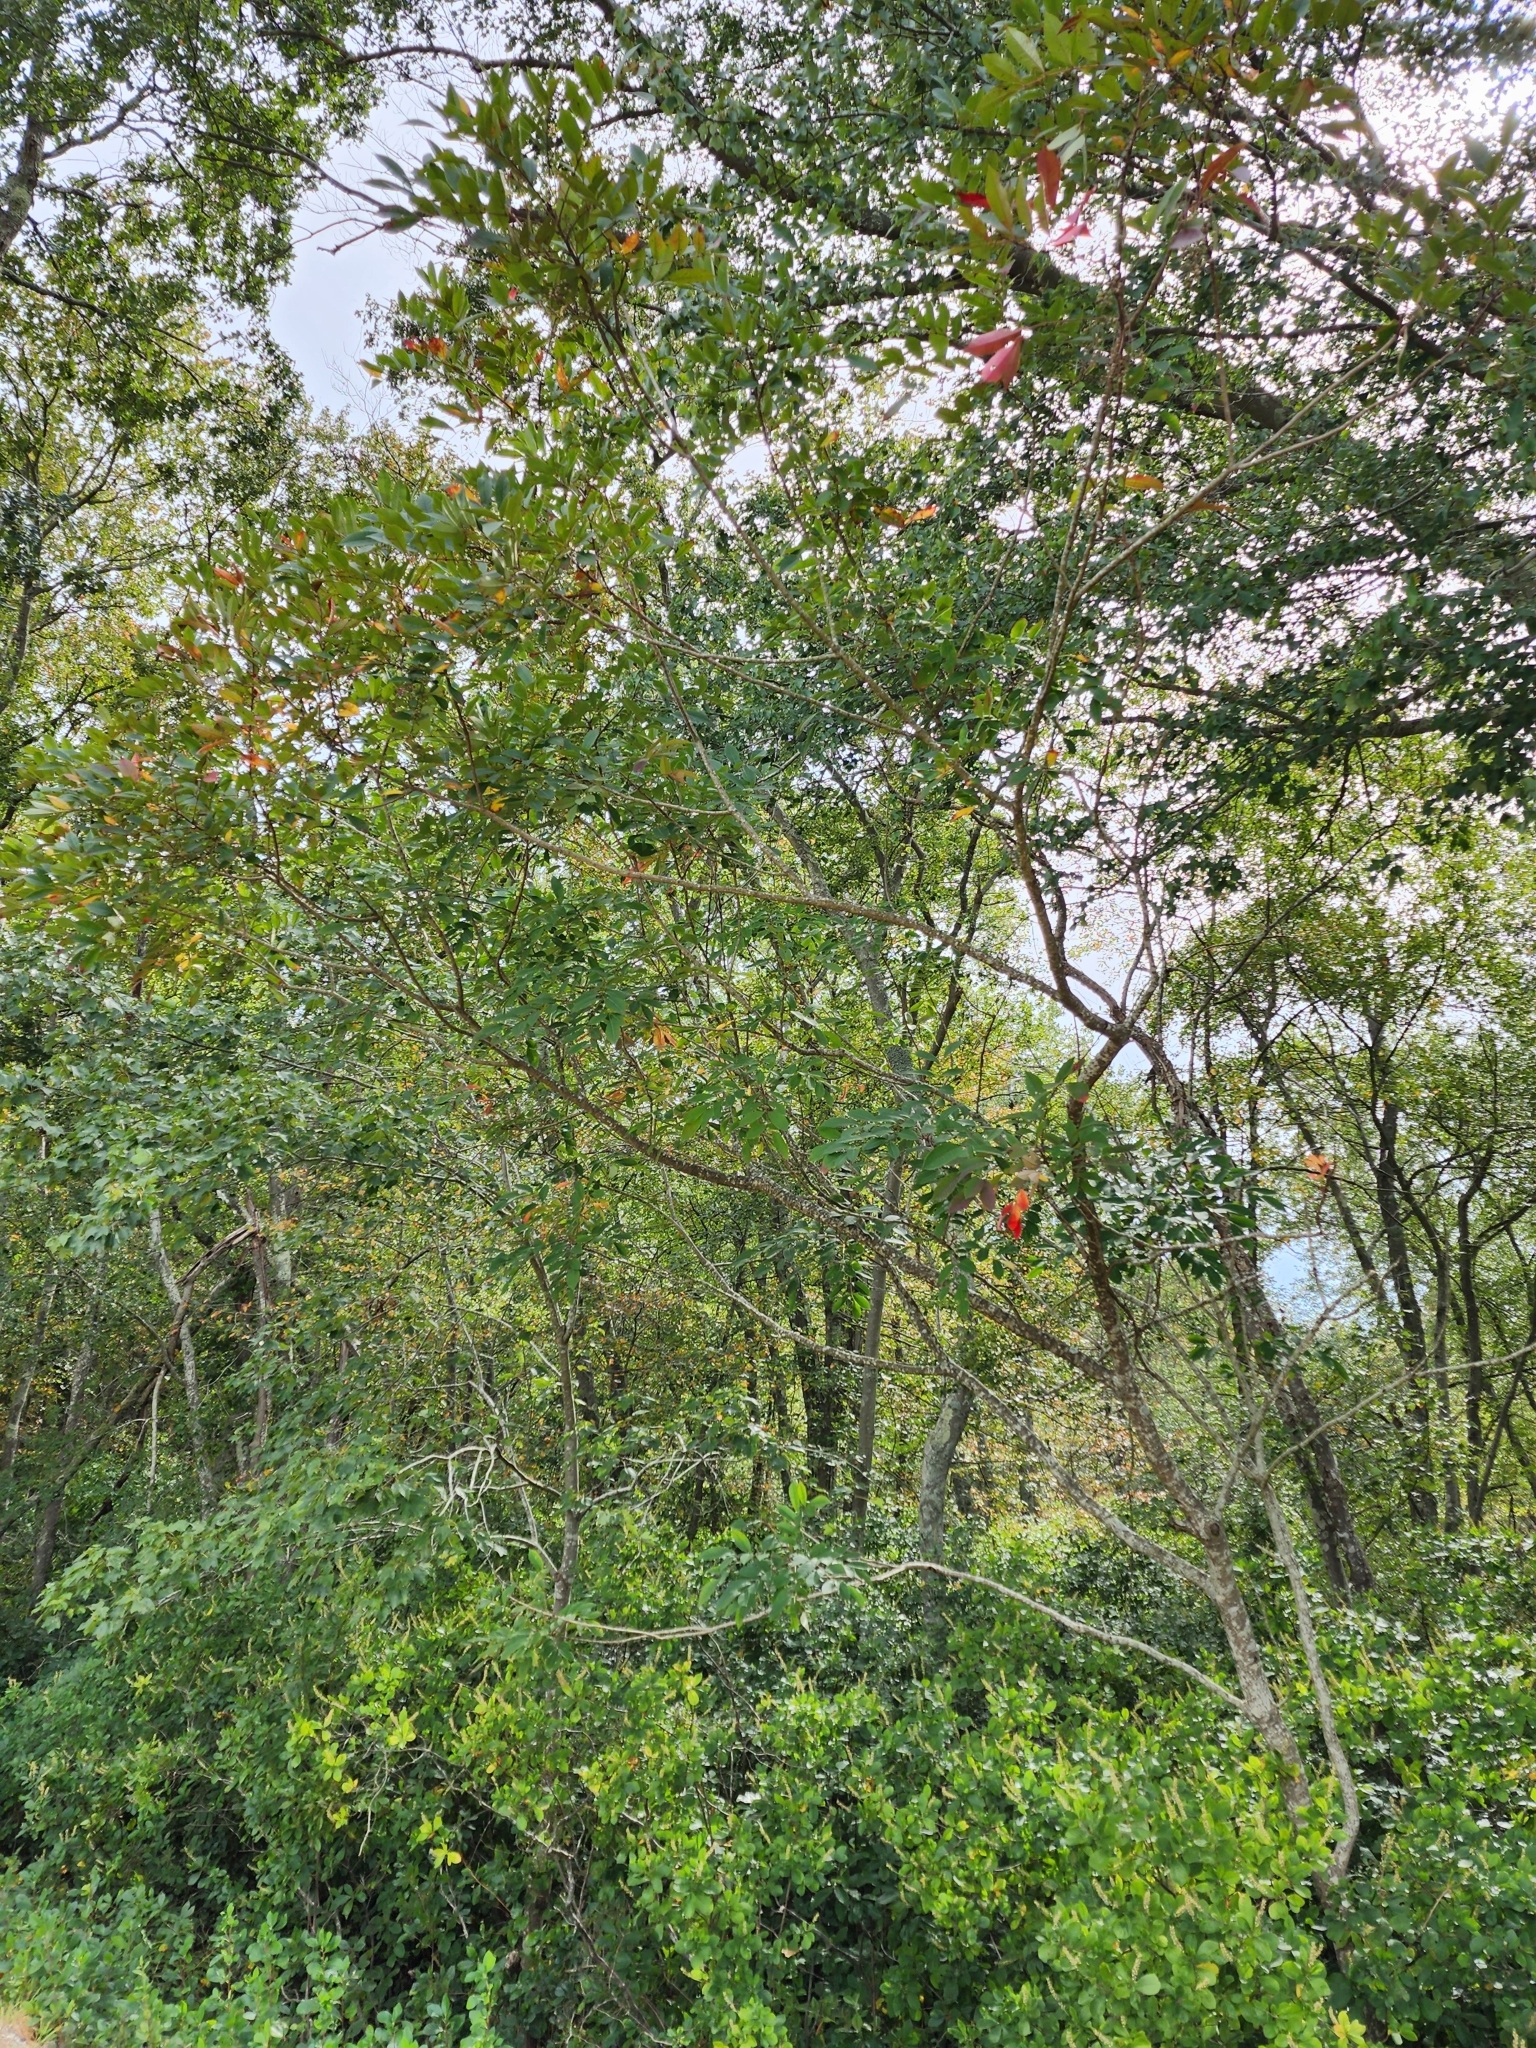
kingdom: Plantae
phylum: Tracheophyta
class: Magnoliopsida
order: Sapindales
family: Anacardiaceae
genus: Toxicodendron
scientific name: Toxicodendron vernix
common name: Poison sumac
